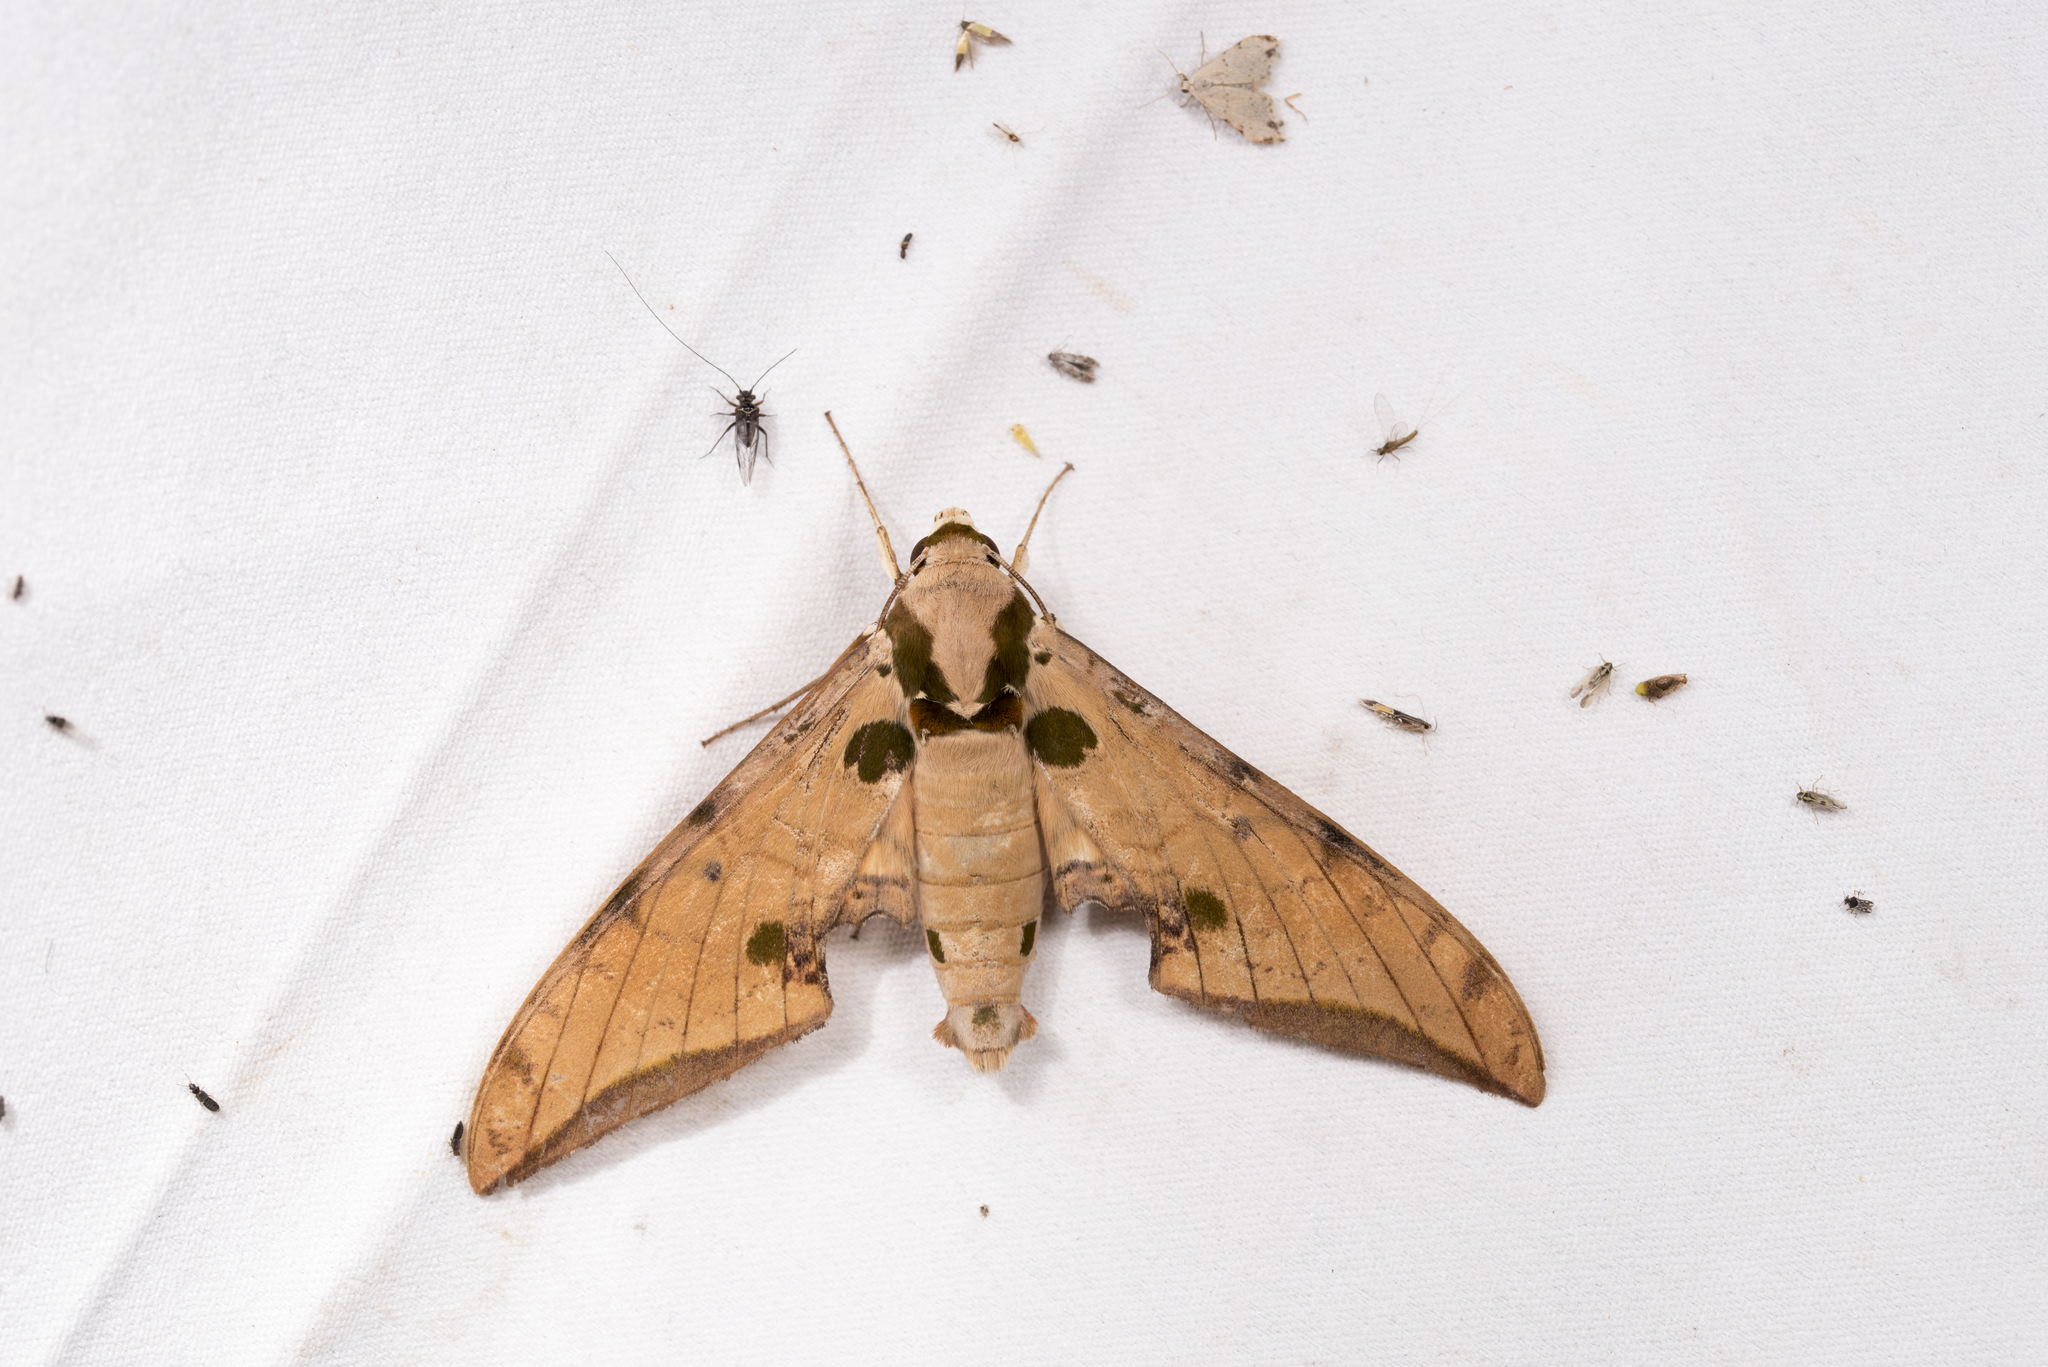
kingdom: Animalia
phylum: Arthropoda
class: Insecta
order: Lepidoptera
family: Sphingidae
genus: Ambulyx
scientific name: Ambulyx ochracea
